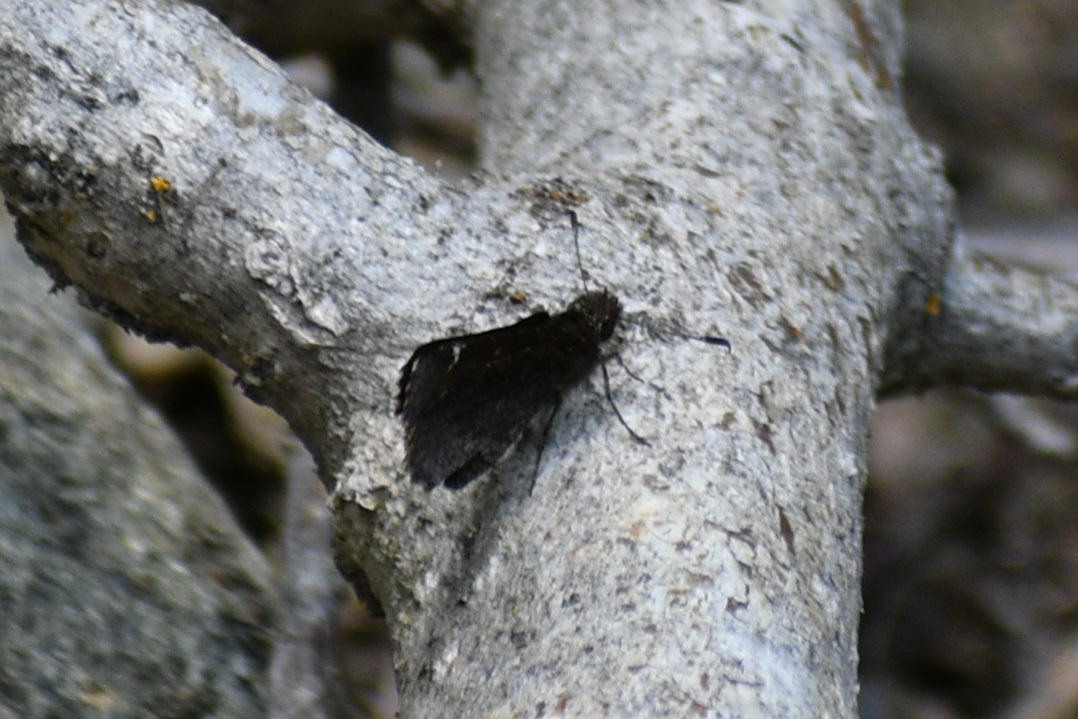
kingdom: Animalia
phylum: Arthropoda
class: Insecta
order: Lepidoptera
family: Hesperiidae
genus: Mastor
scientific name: Mastor vialis
